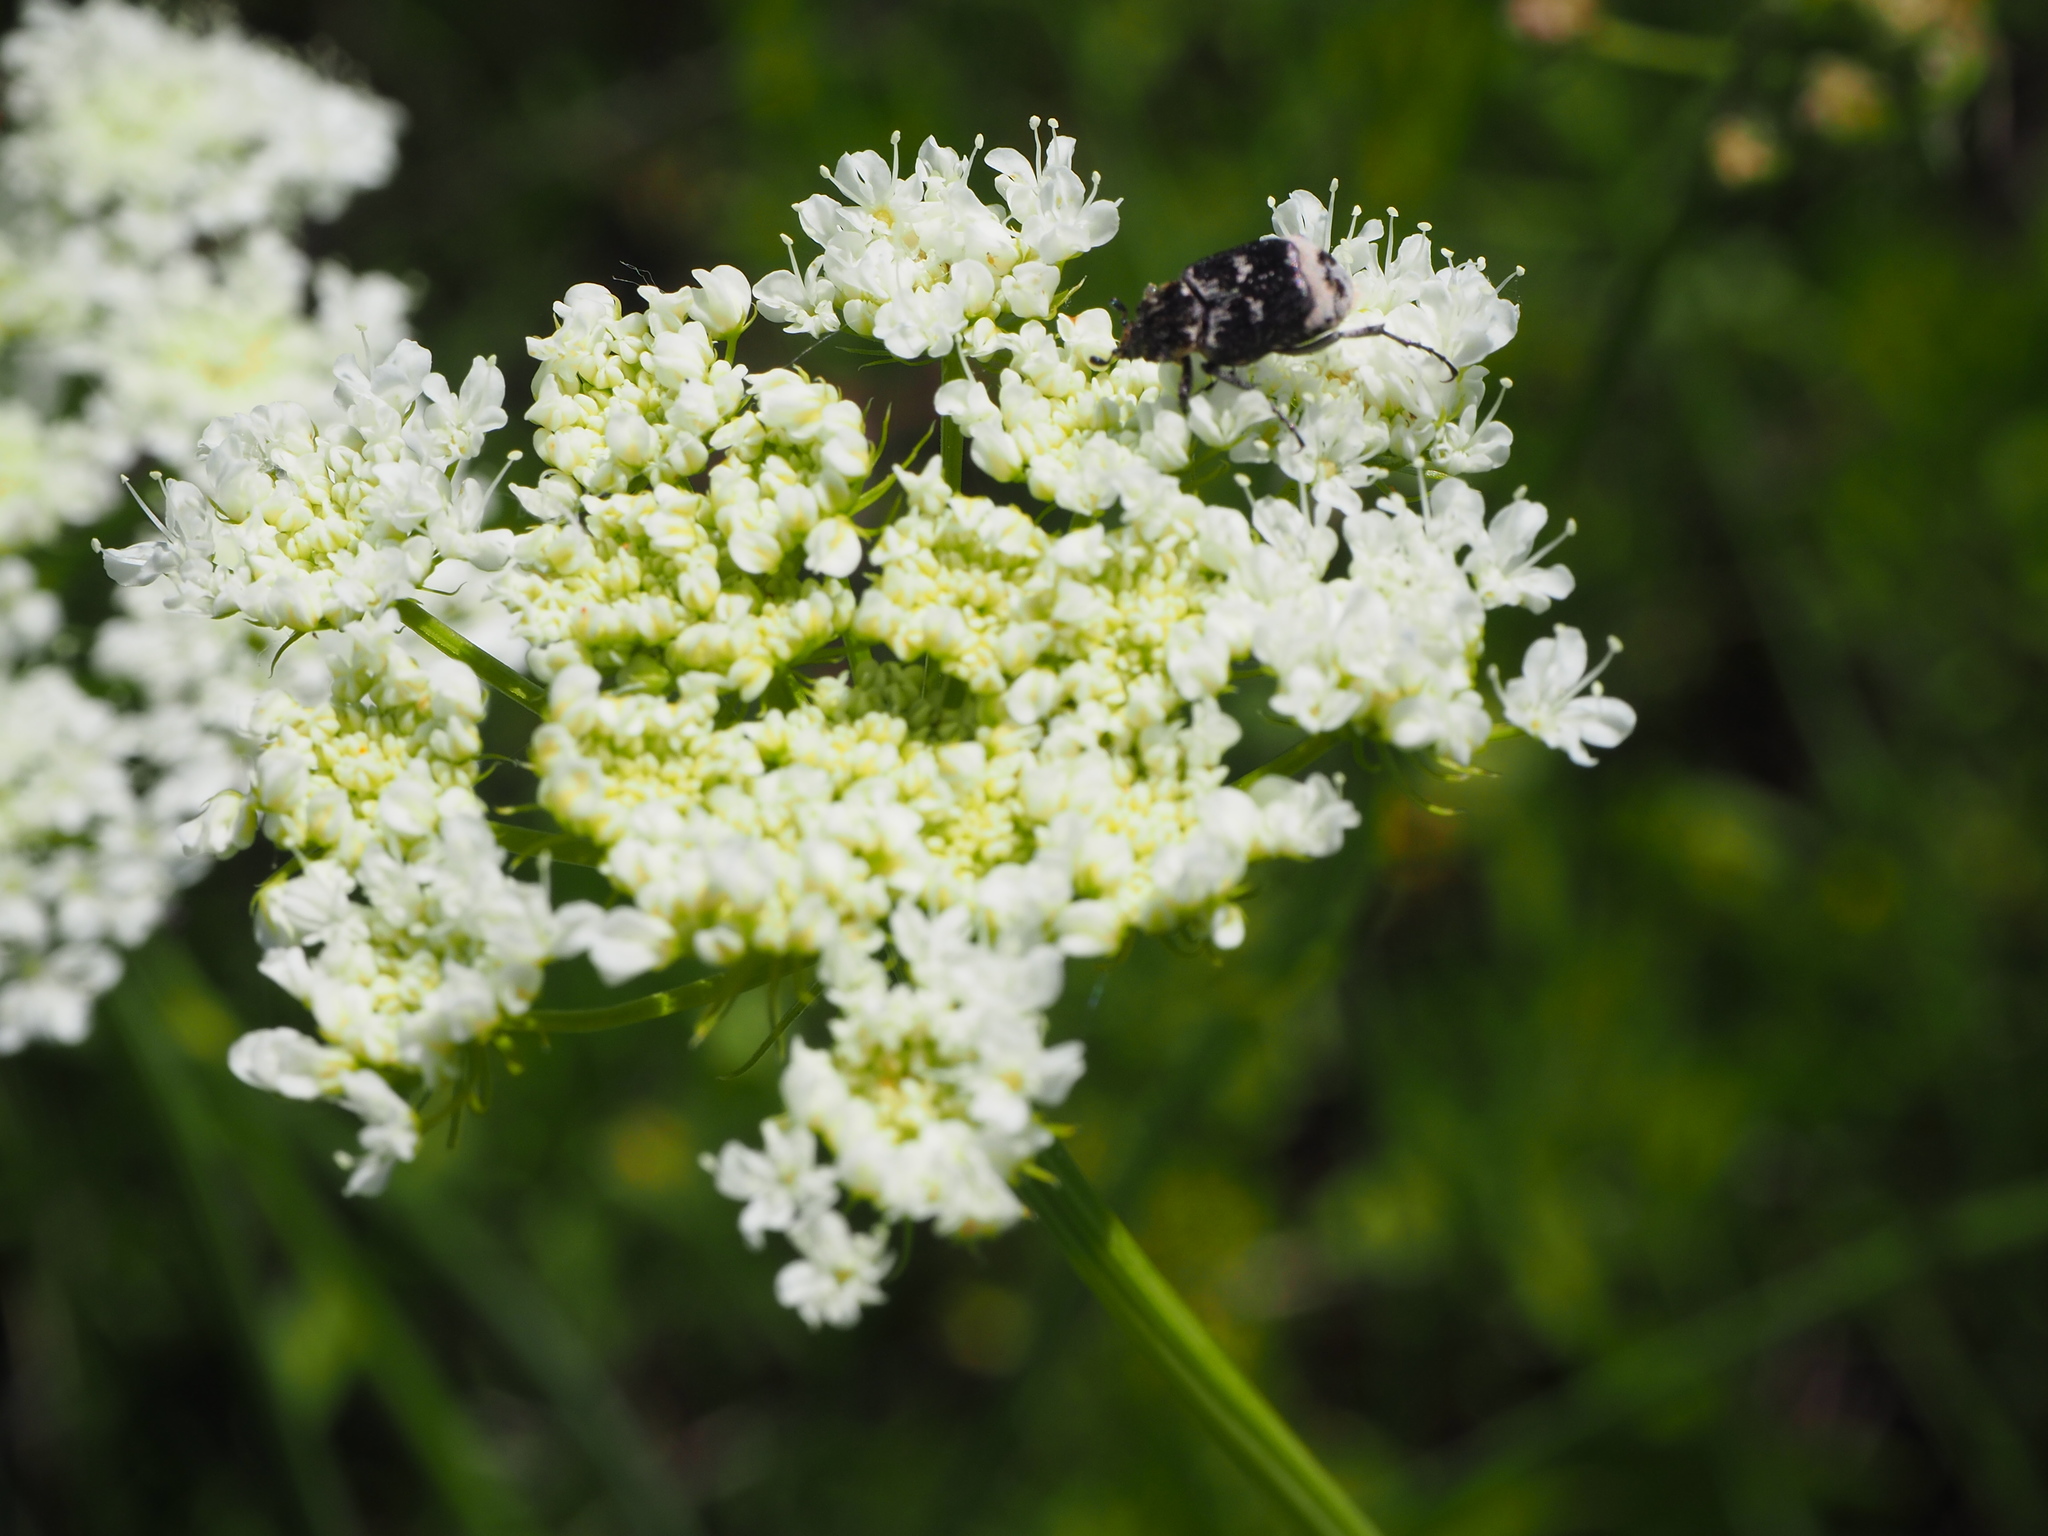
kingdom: Animalia
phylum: Arthropoda
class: Insecta
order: Coleoptera
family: Scarabaeidae
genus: Valgus
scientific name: Valgus hemipterus
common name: Bug flower chafer
